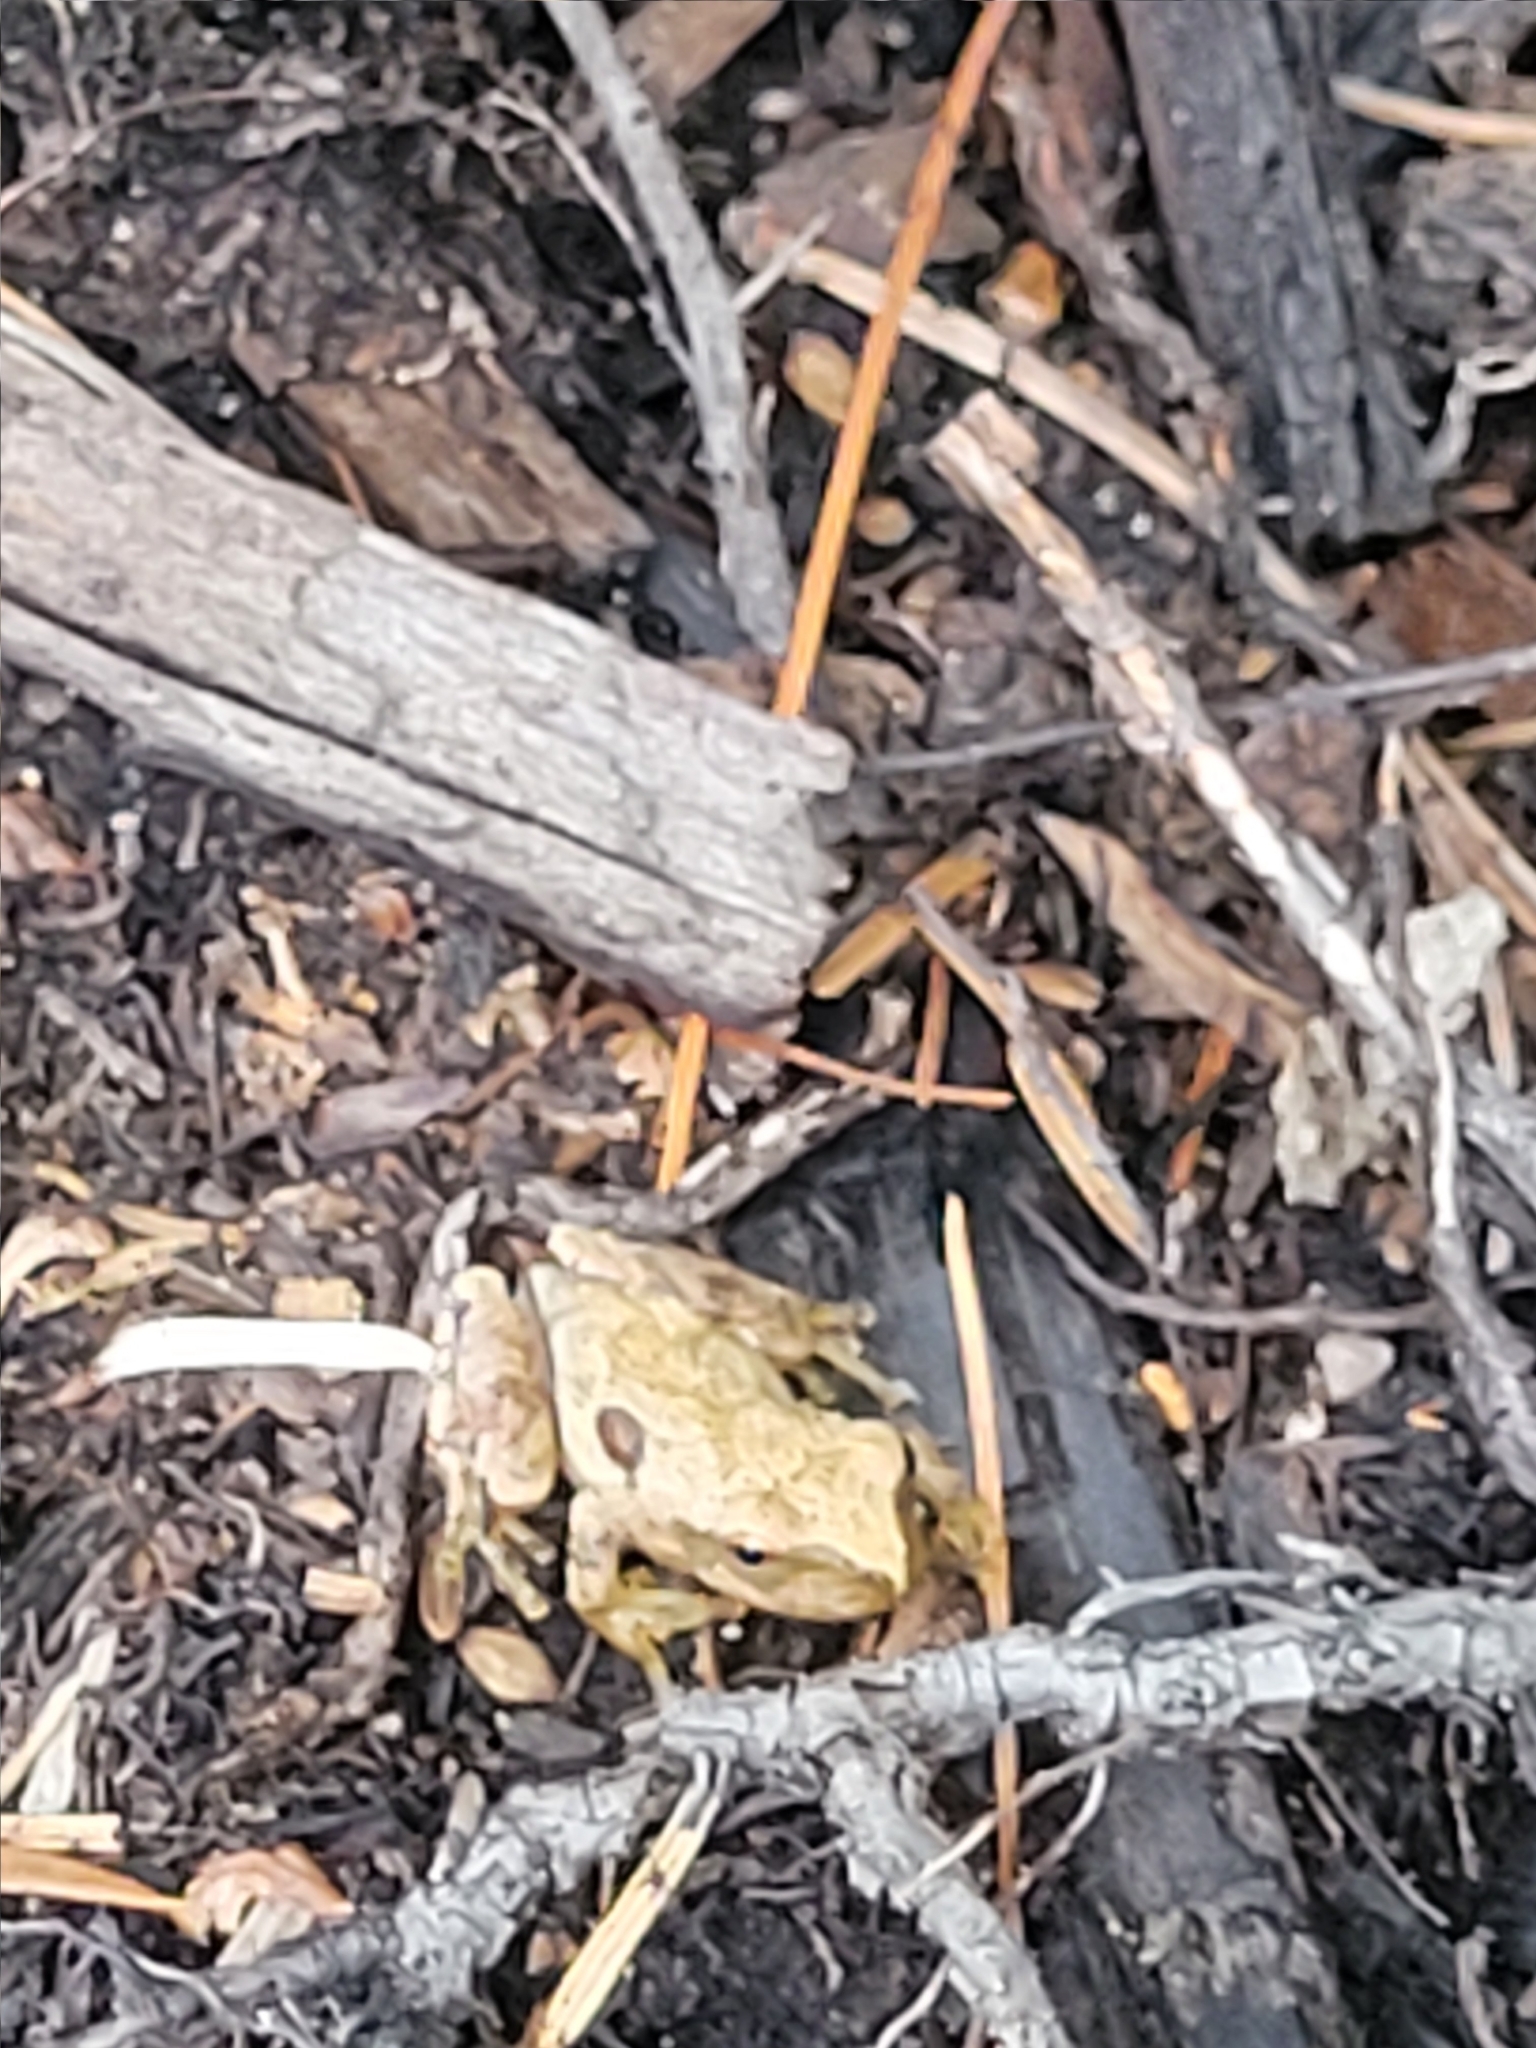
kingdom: Animalia
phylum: Chordata
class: Amphibia
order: Anura
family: Hylidae
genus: Pseudacris
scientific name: Pseudacris crucifer
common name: Spring peeper
